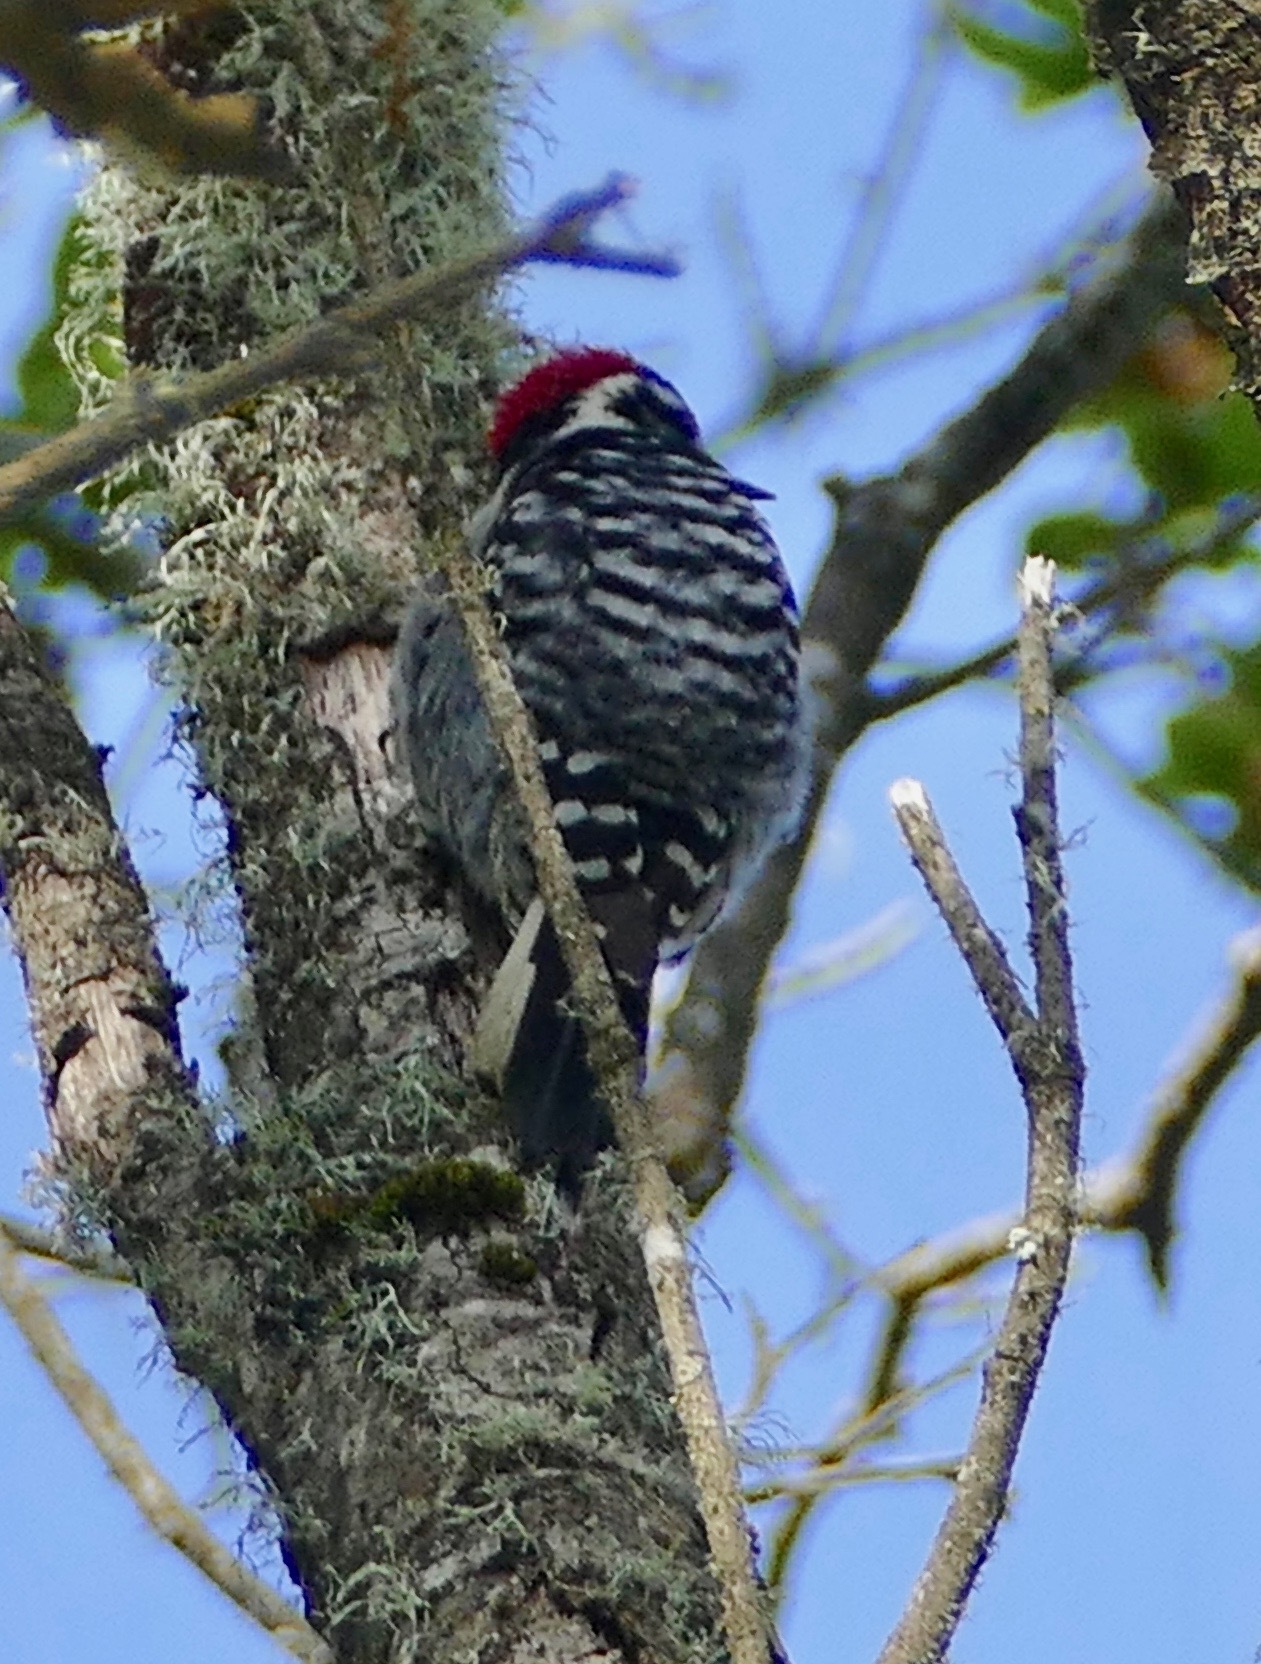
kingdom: Animalia
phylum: Chordata
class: Aves
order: Piciformes
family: Picidae
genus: Dryobates
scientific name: Dryobates nuttallii
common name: Nuttall's woodpecker
